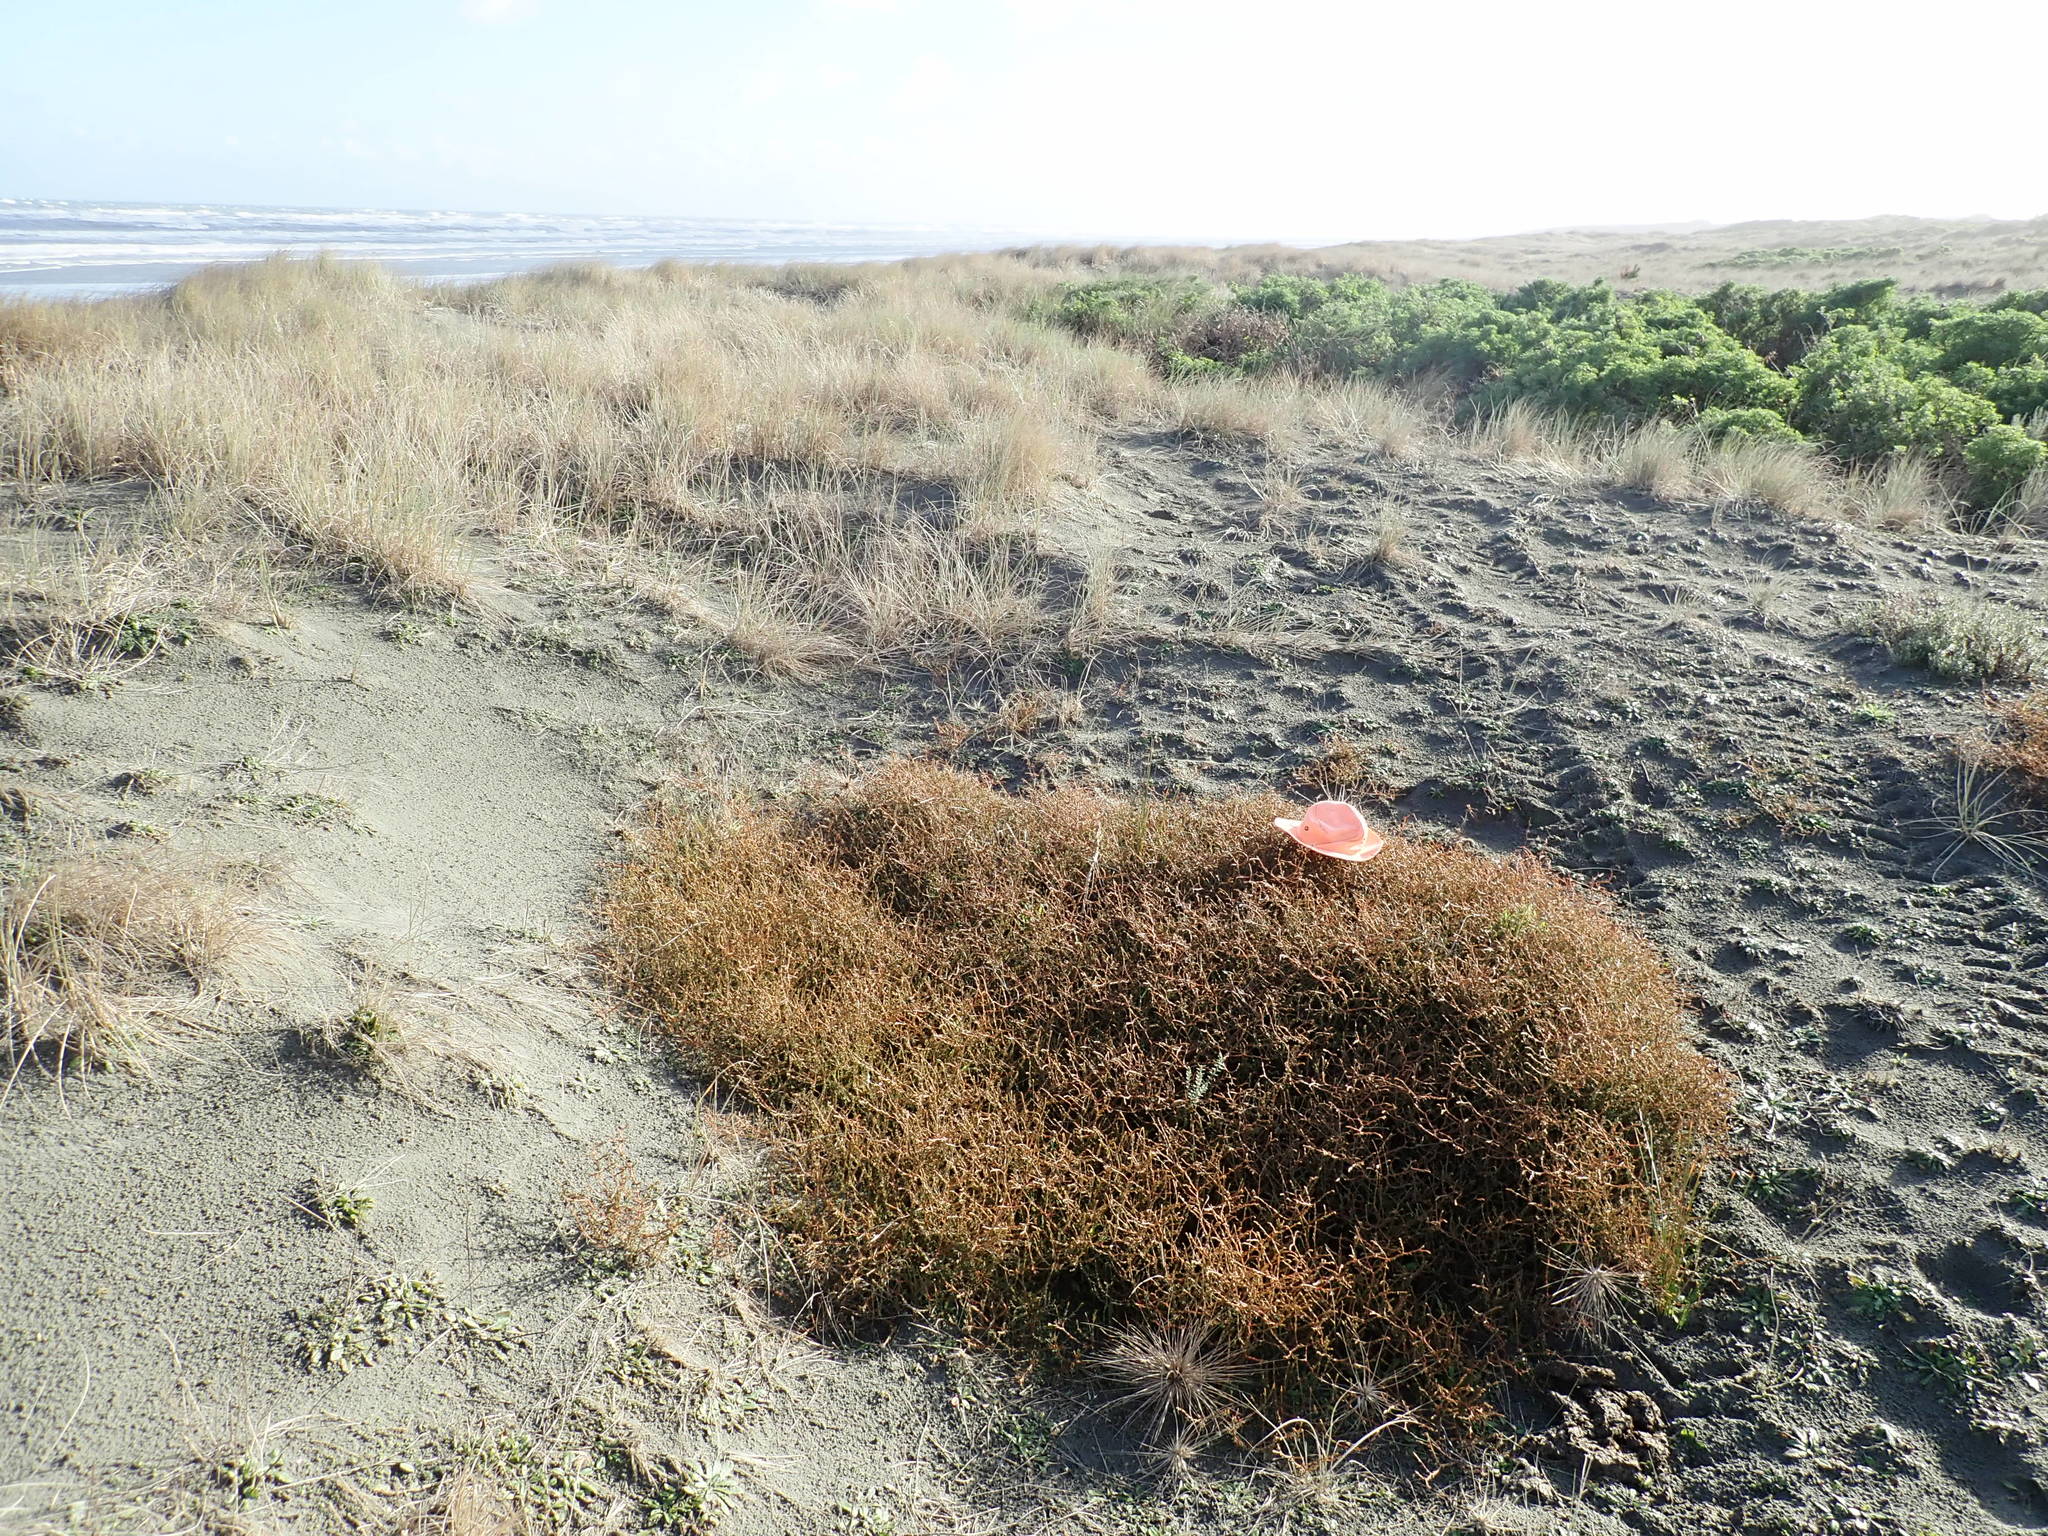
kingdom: Animalia
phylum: Arthropoda
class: Arachnida
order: Araneae
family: Theridiidae
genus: Latrodectus
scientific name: Latrodectus katipo
